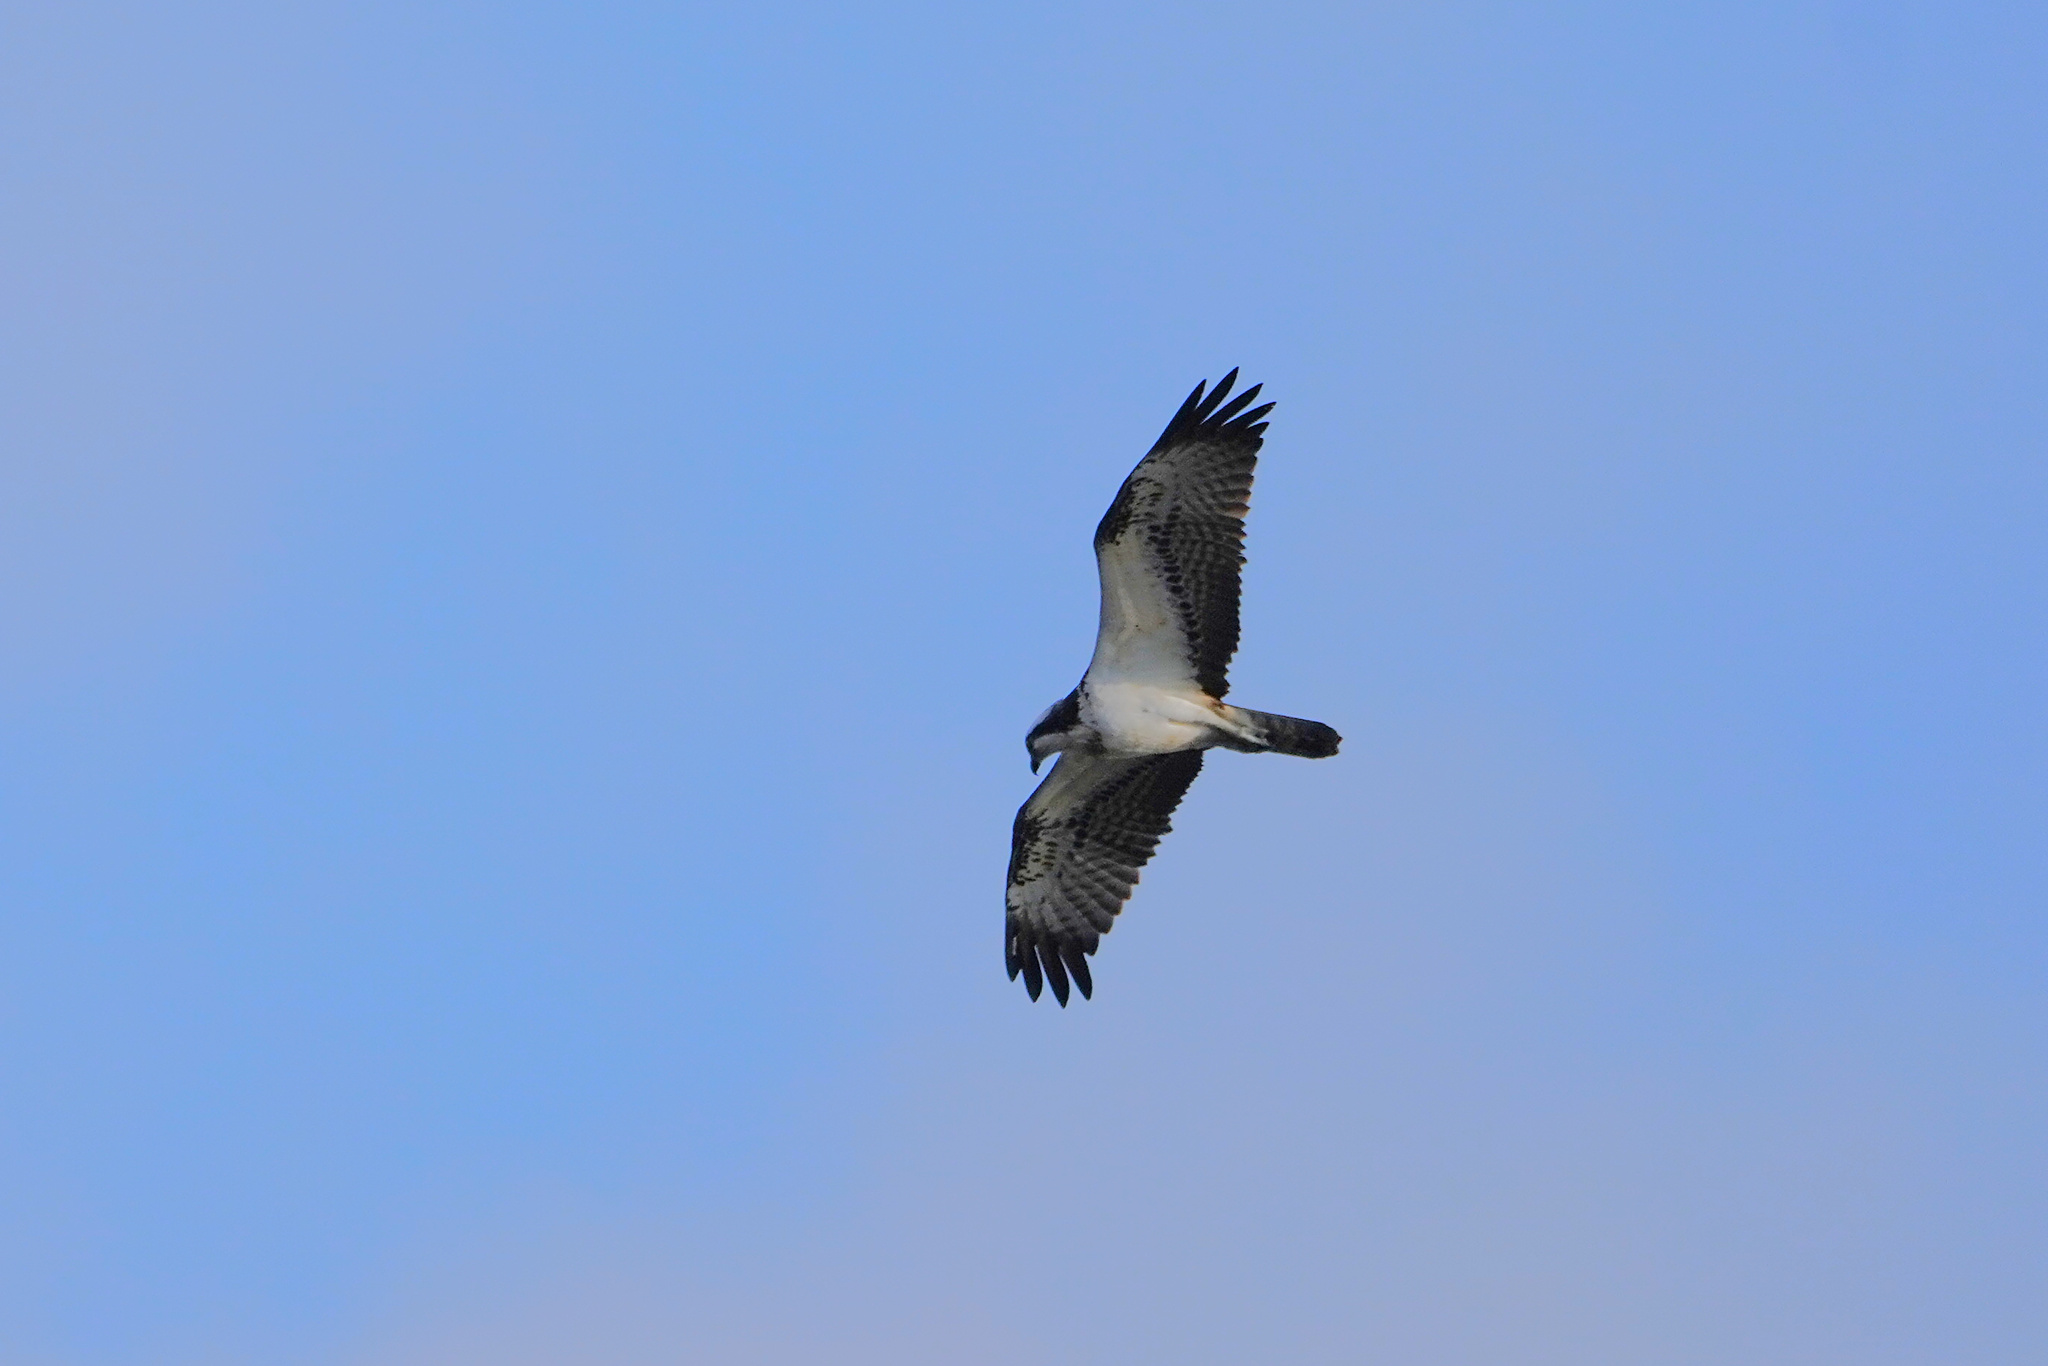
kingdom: Animalia
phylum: Chordata
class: Aves
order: Accipitriformes
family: Pandionidae
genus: Pandion
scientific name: Pandion haliaetus
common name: Osprey
